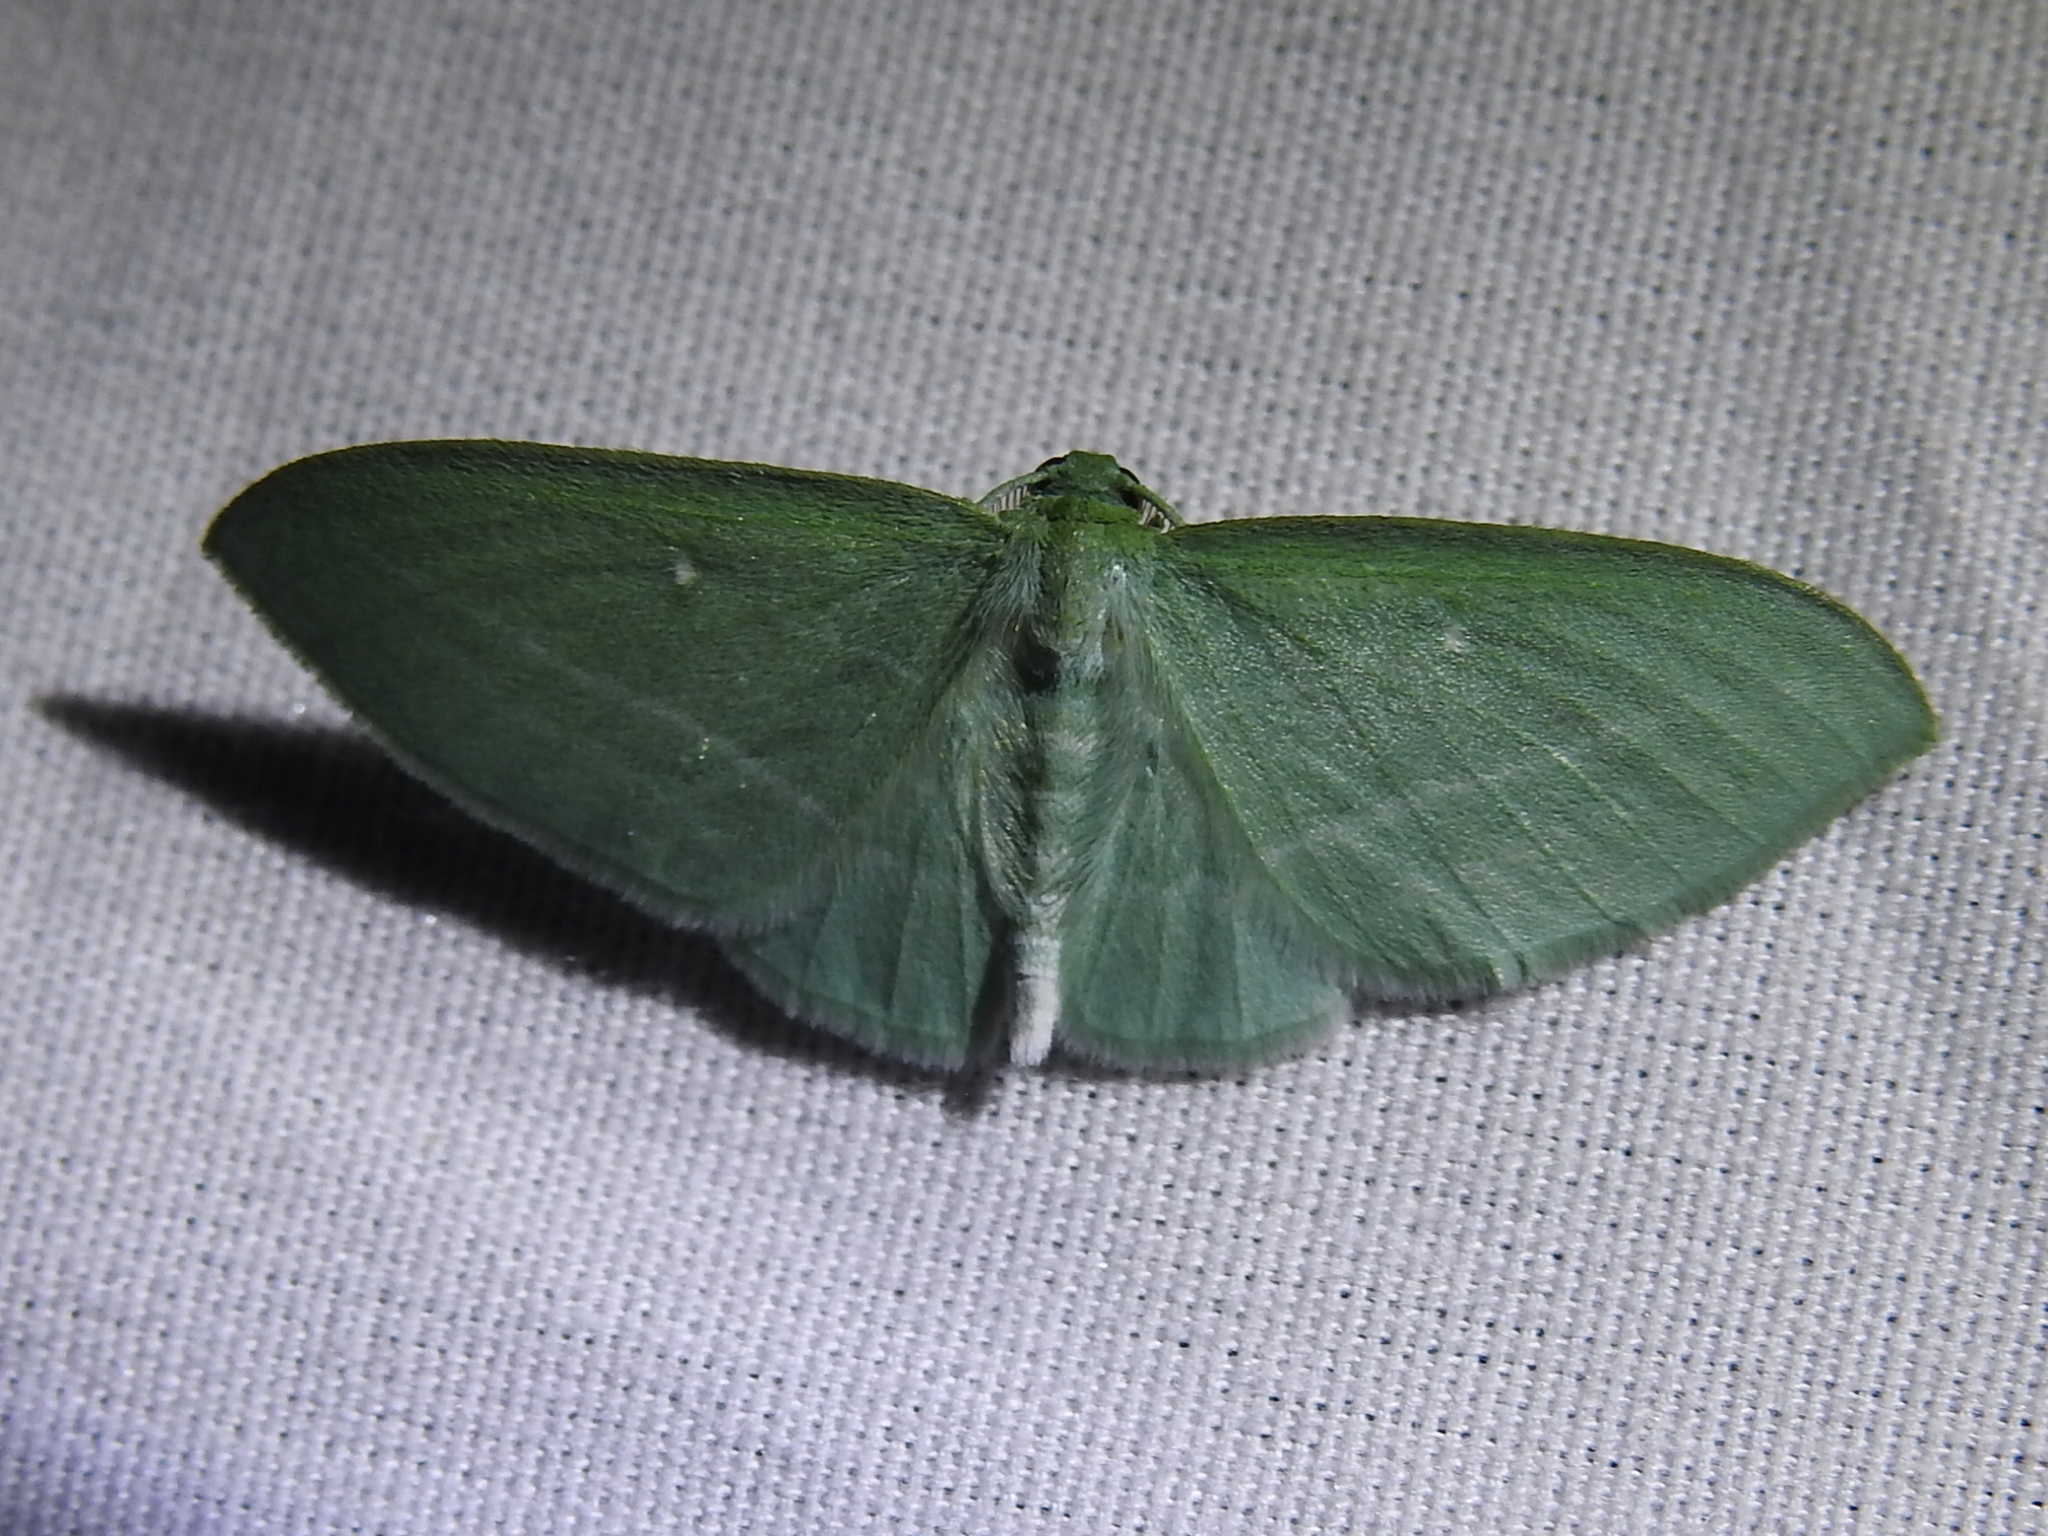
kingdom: Animalia
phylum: Arthropoda
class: Insecta
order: Lepidoptera
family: Geometridae
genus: Dyspteris
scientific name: Dyspteris abortivaria
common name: Bad-wing
